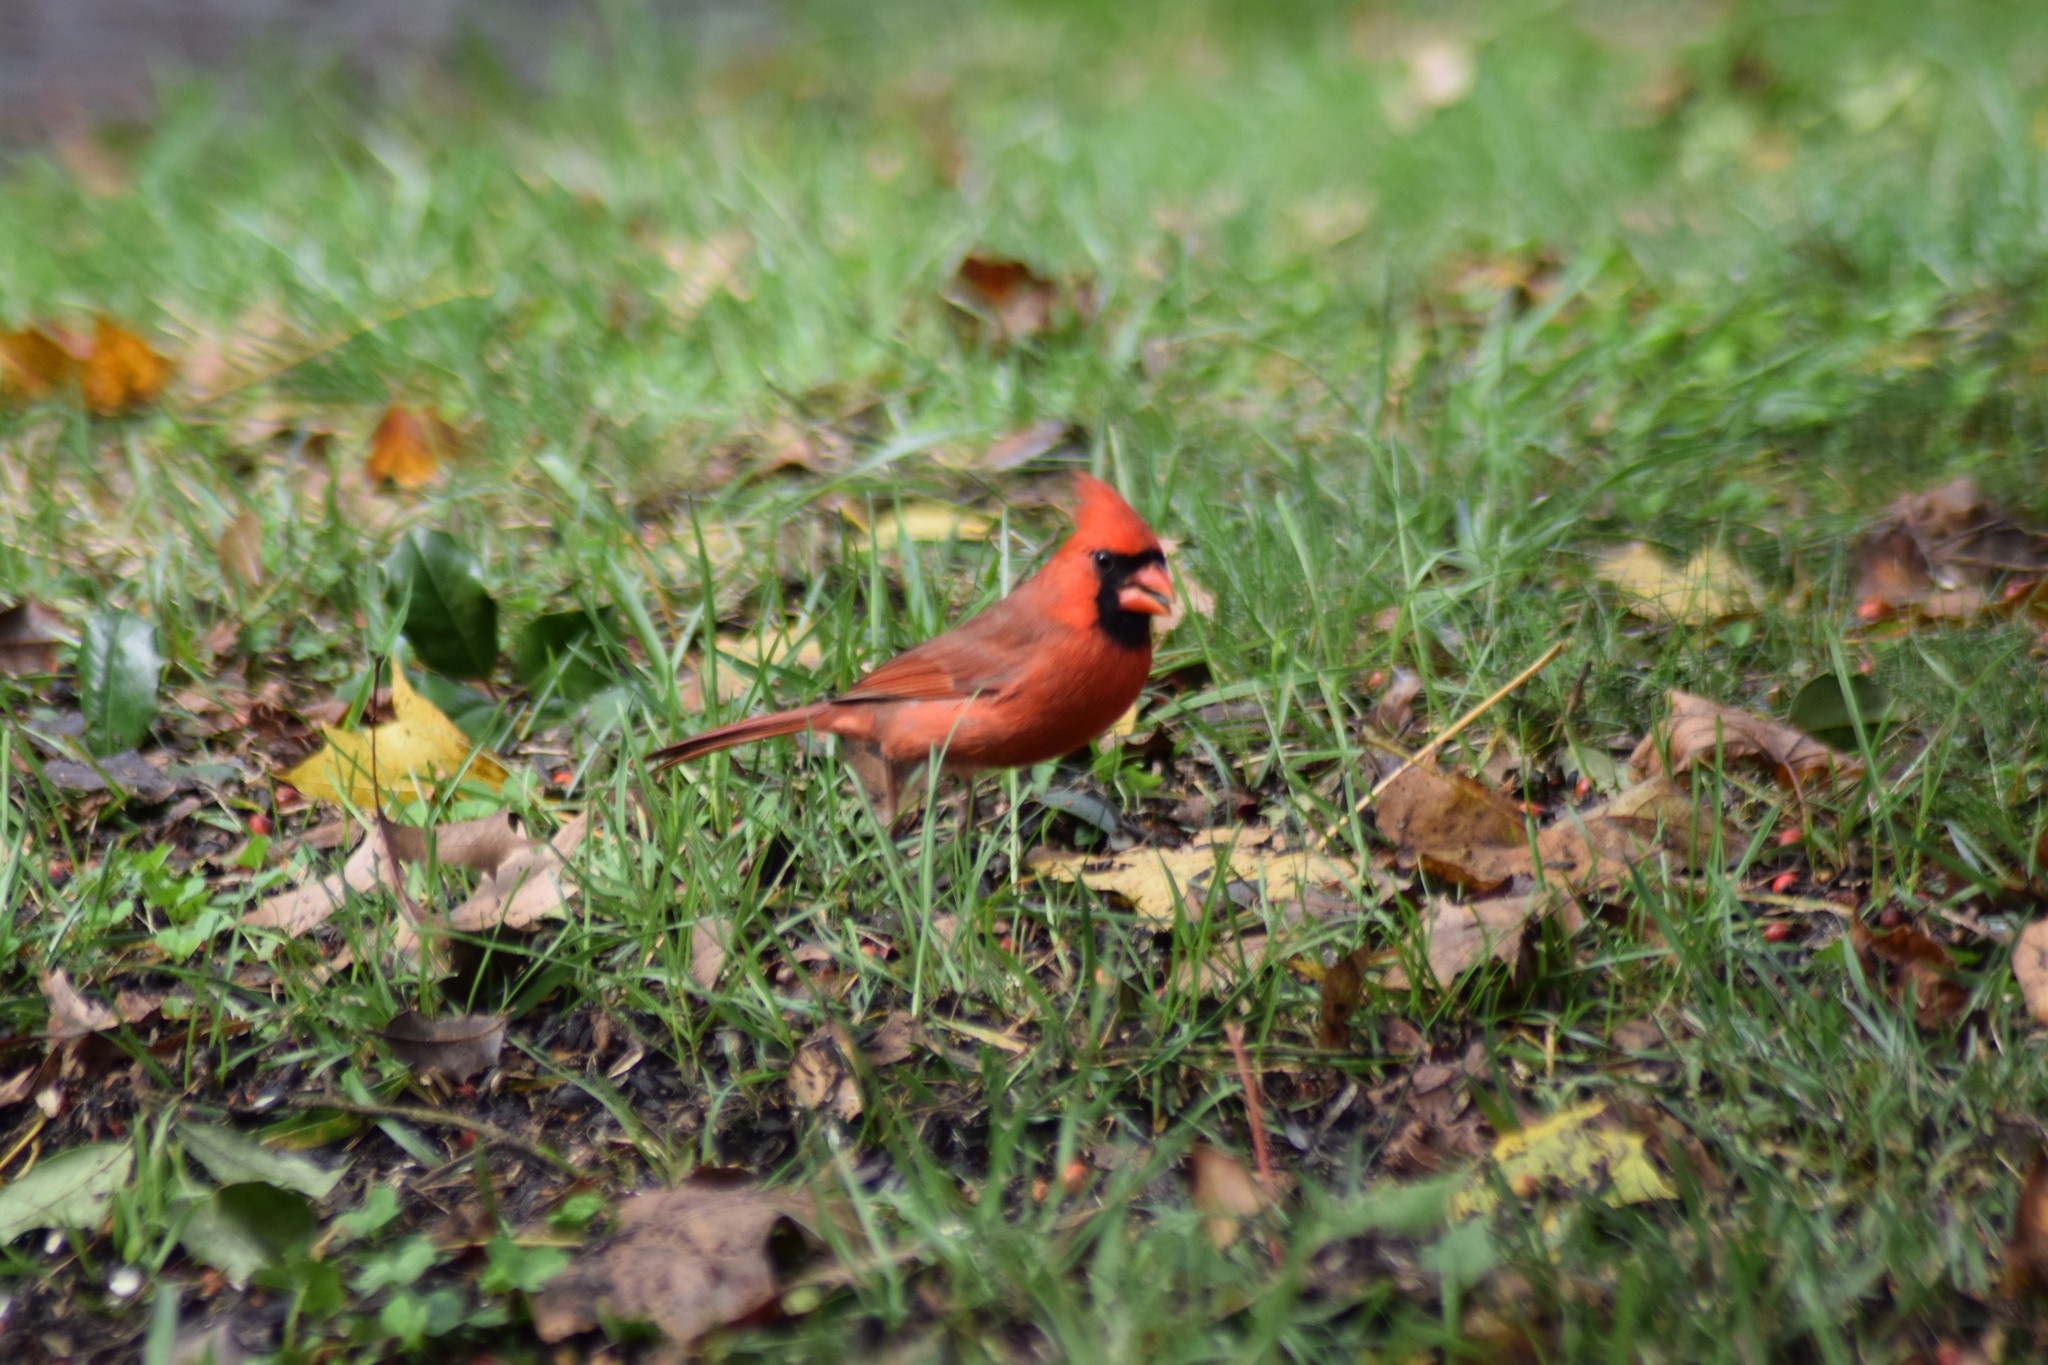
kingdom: Animalia
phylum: Chordata
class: Aves
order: Passeriformes
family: Cardinalidae
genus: Cardinalis
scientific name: Cardinalis cardinalis
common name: Northern cardinal
